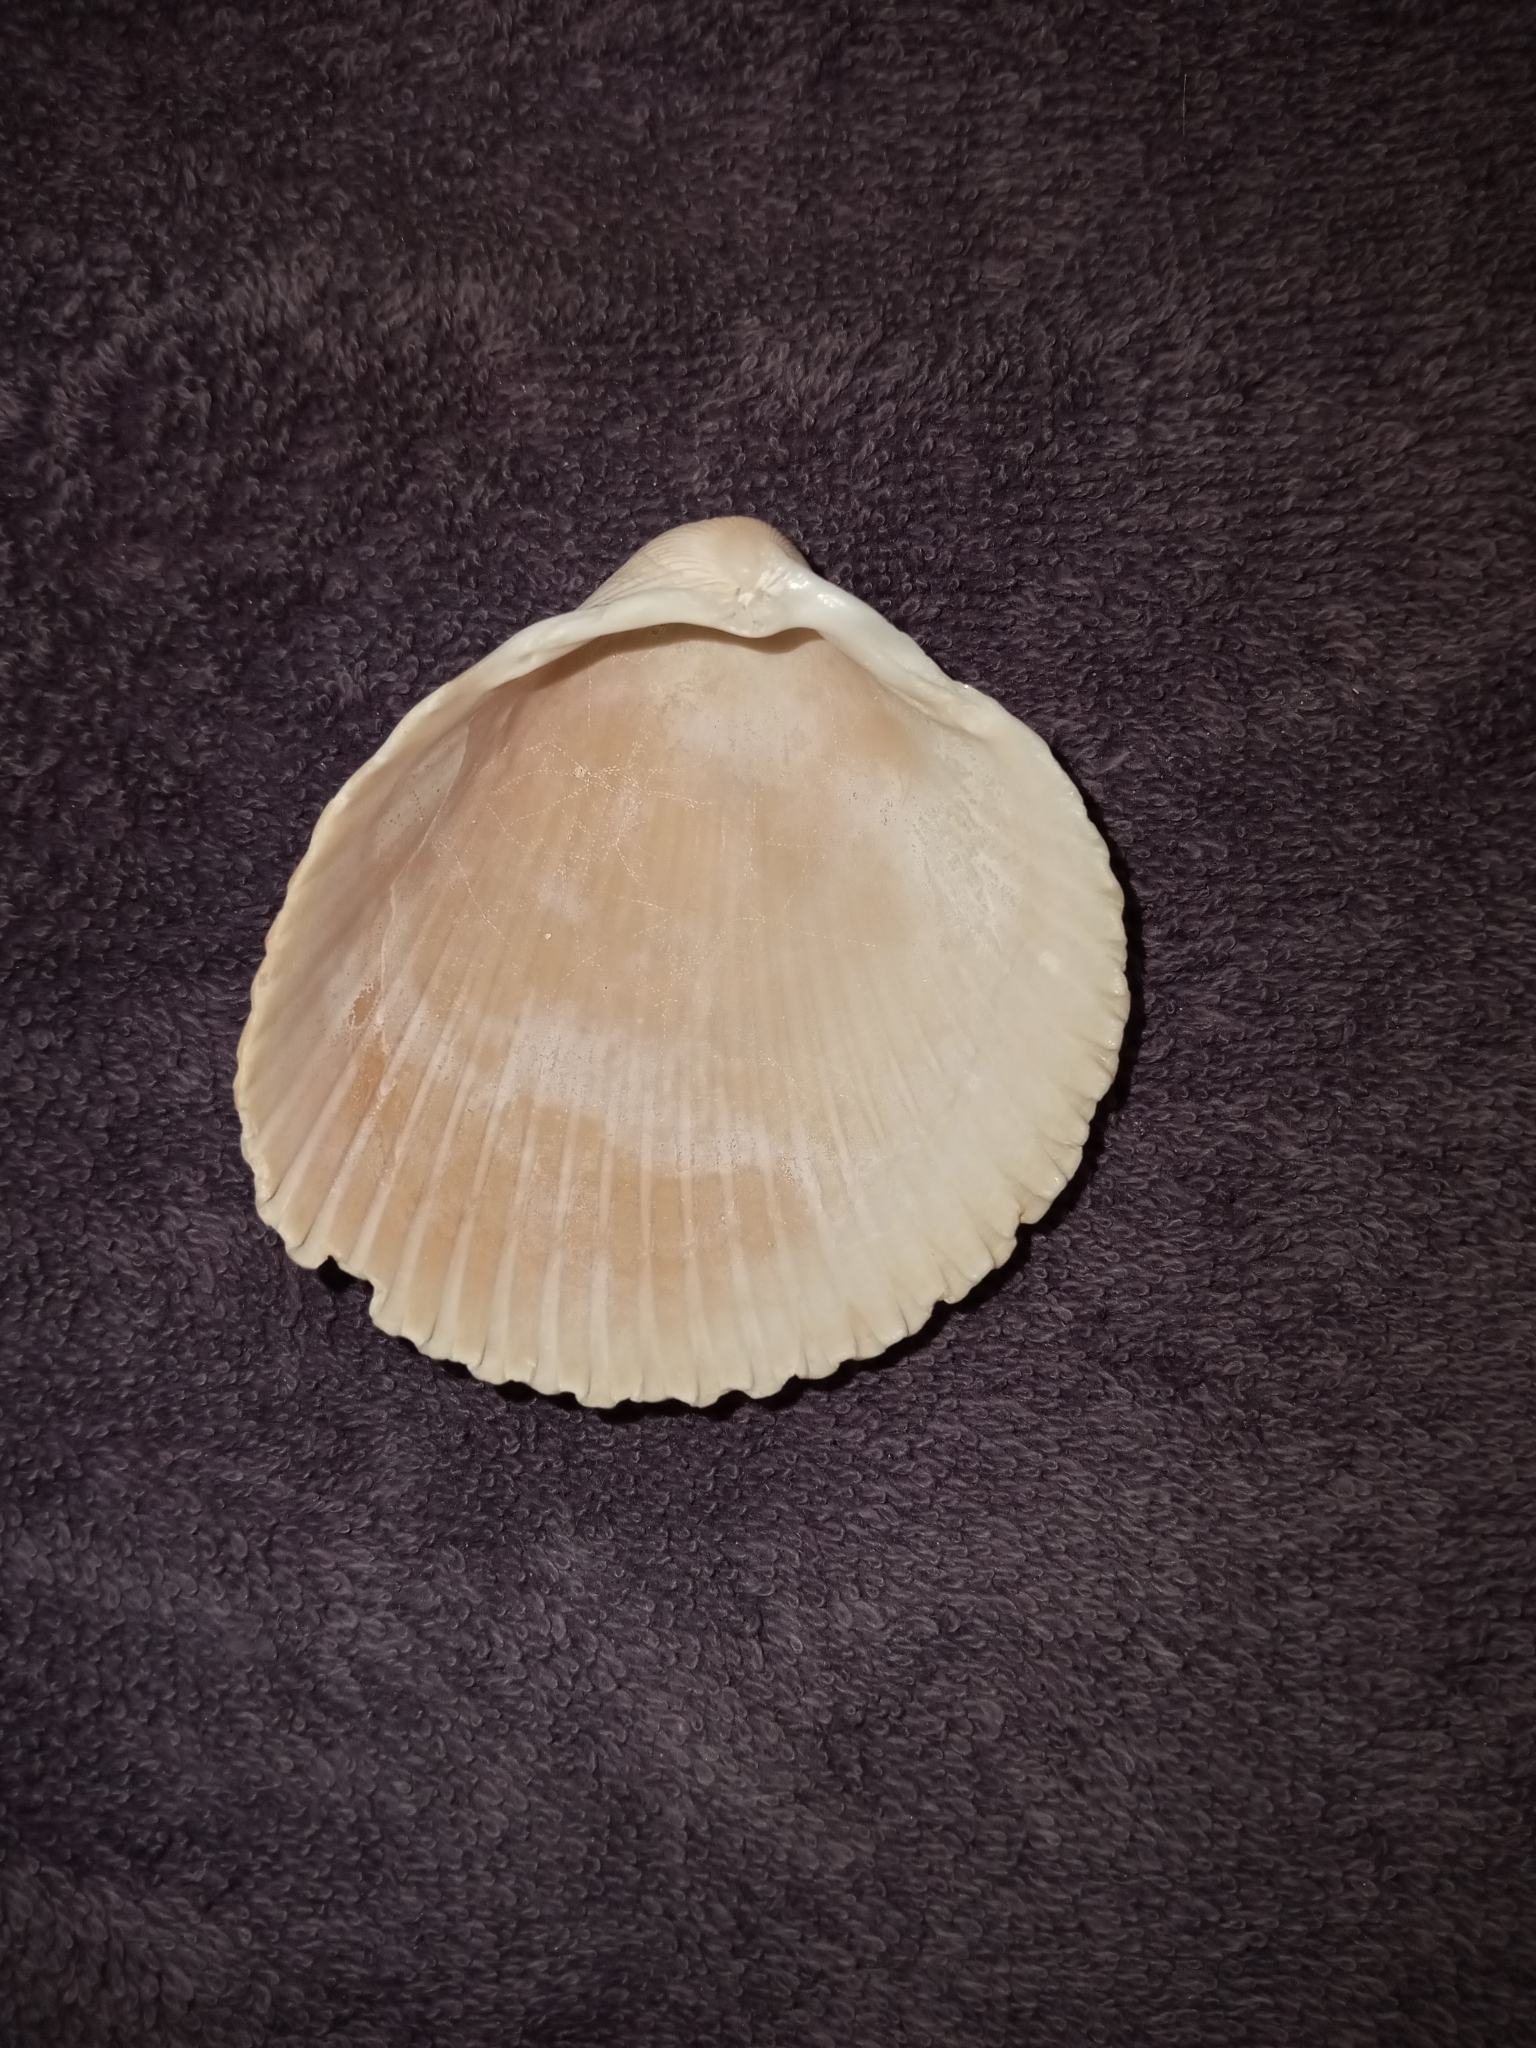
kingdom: Animalia
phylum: Mollusca
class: Bivalvia
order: Cardiida
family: Cardiidae
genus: Dinocardium
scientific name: Dinocardium robustum
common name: Atlantic giant cockle
